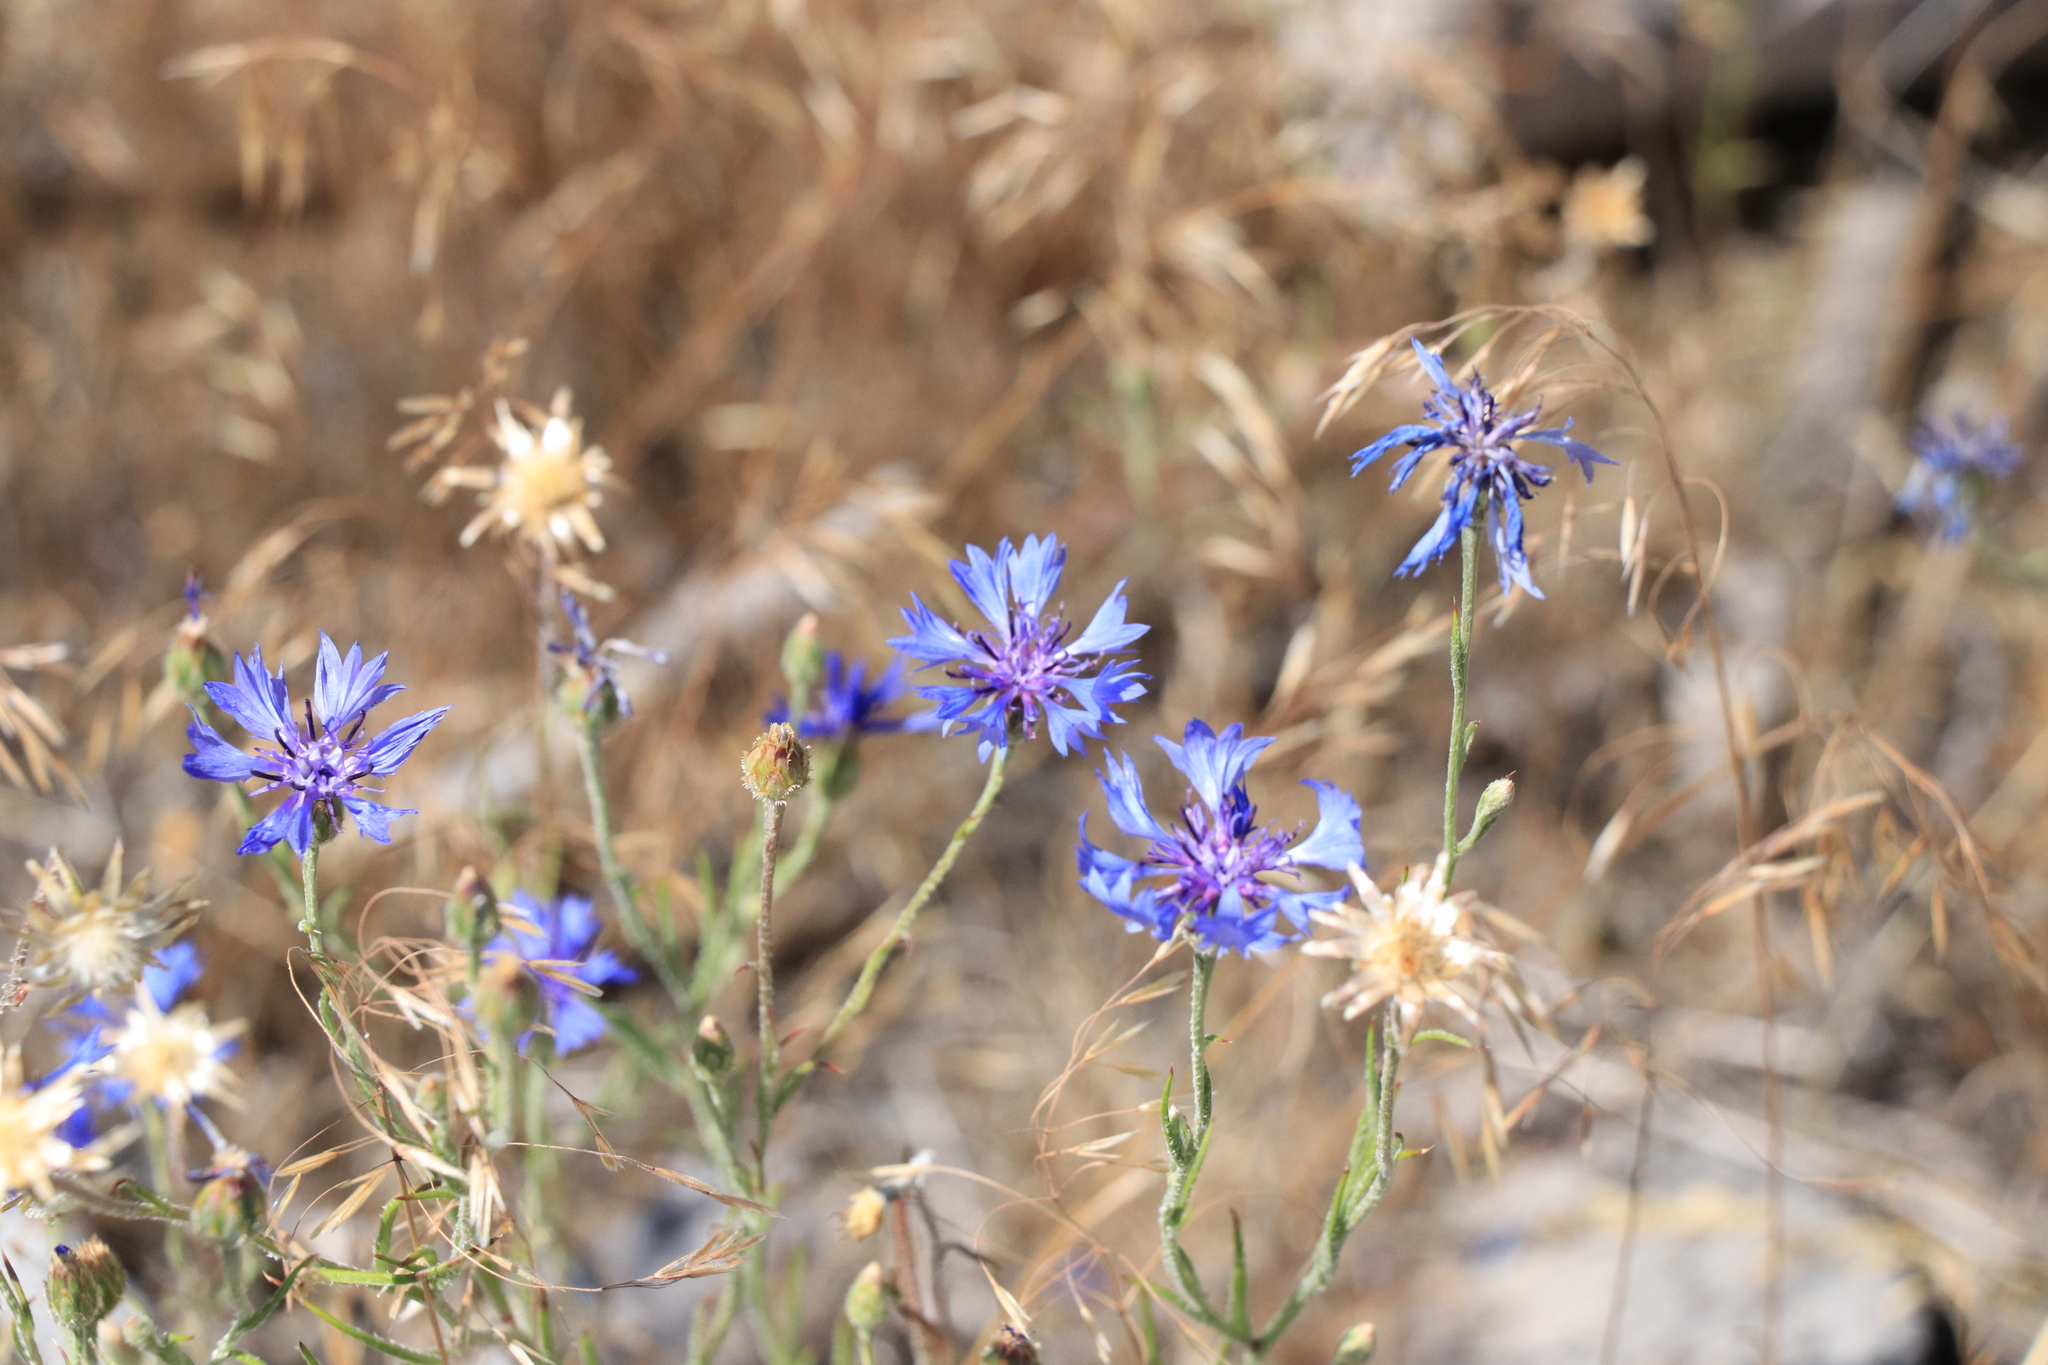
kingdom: Plantae
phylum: Tracheophyta
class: Magnoliopsida
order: Asterales
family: Asteraceae
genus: Centaurea
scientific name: Centaurea cyanus
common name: Cornflower
